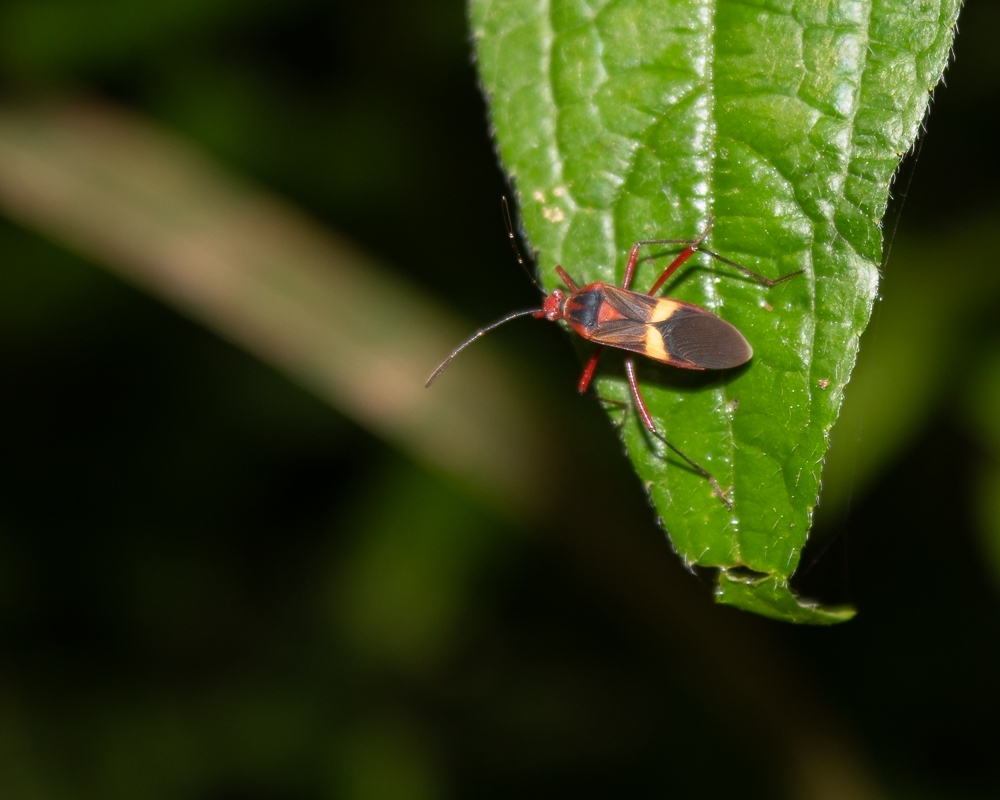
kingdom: Animalia
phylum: Arthropoda
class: Insecta
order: Hemiptera
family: Coreidae
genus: Hypselonotus
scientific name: Hypselonotus interruptus
